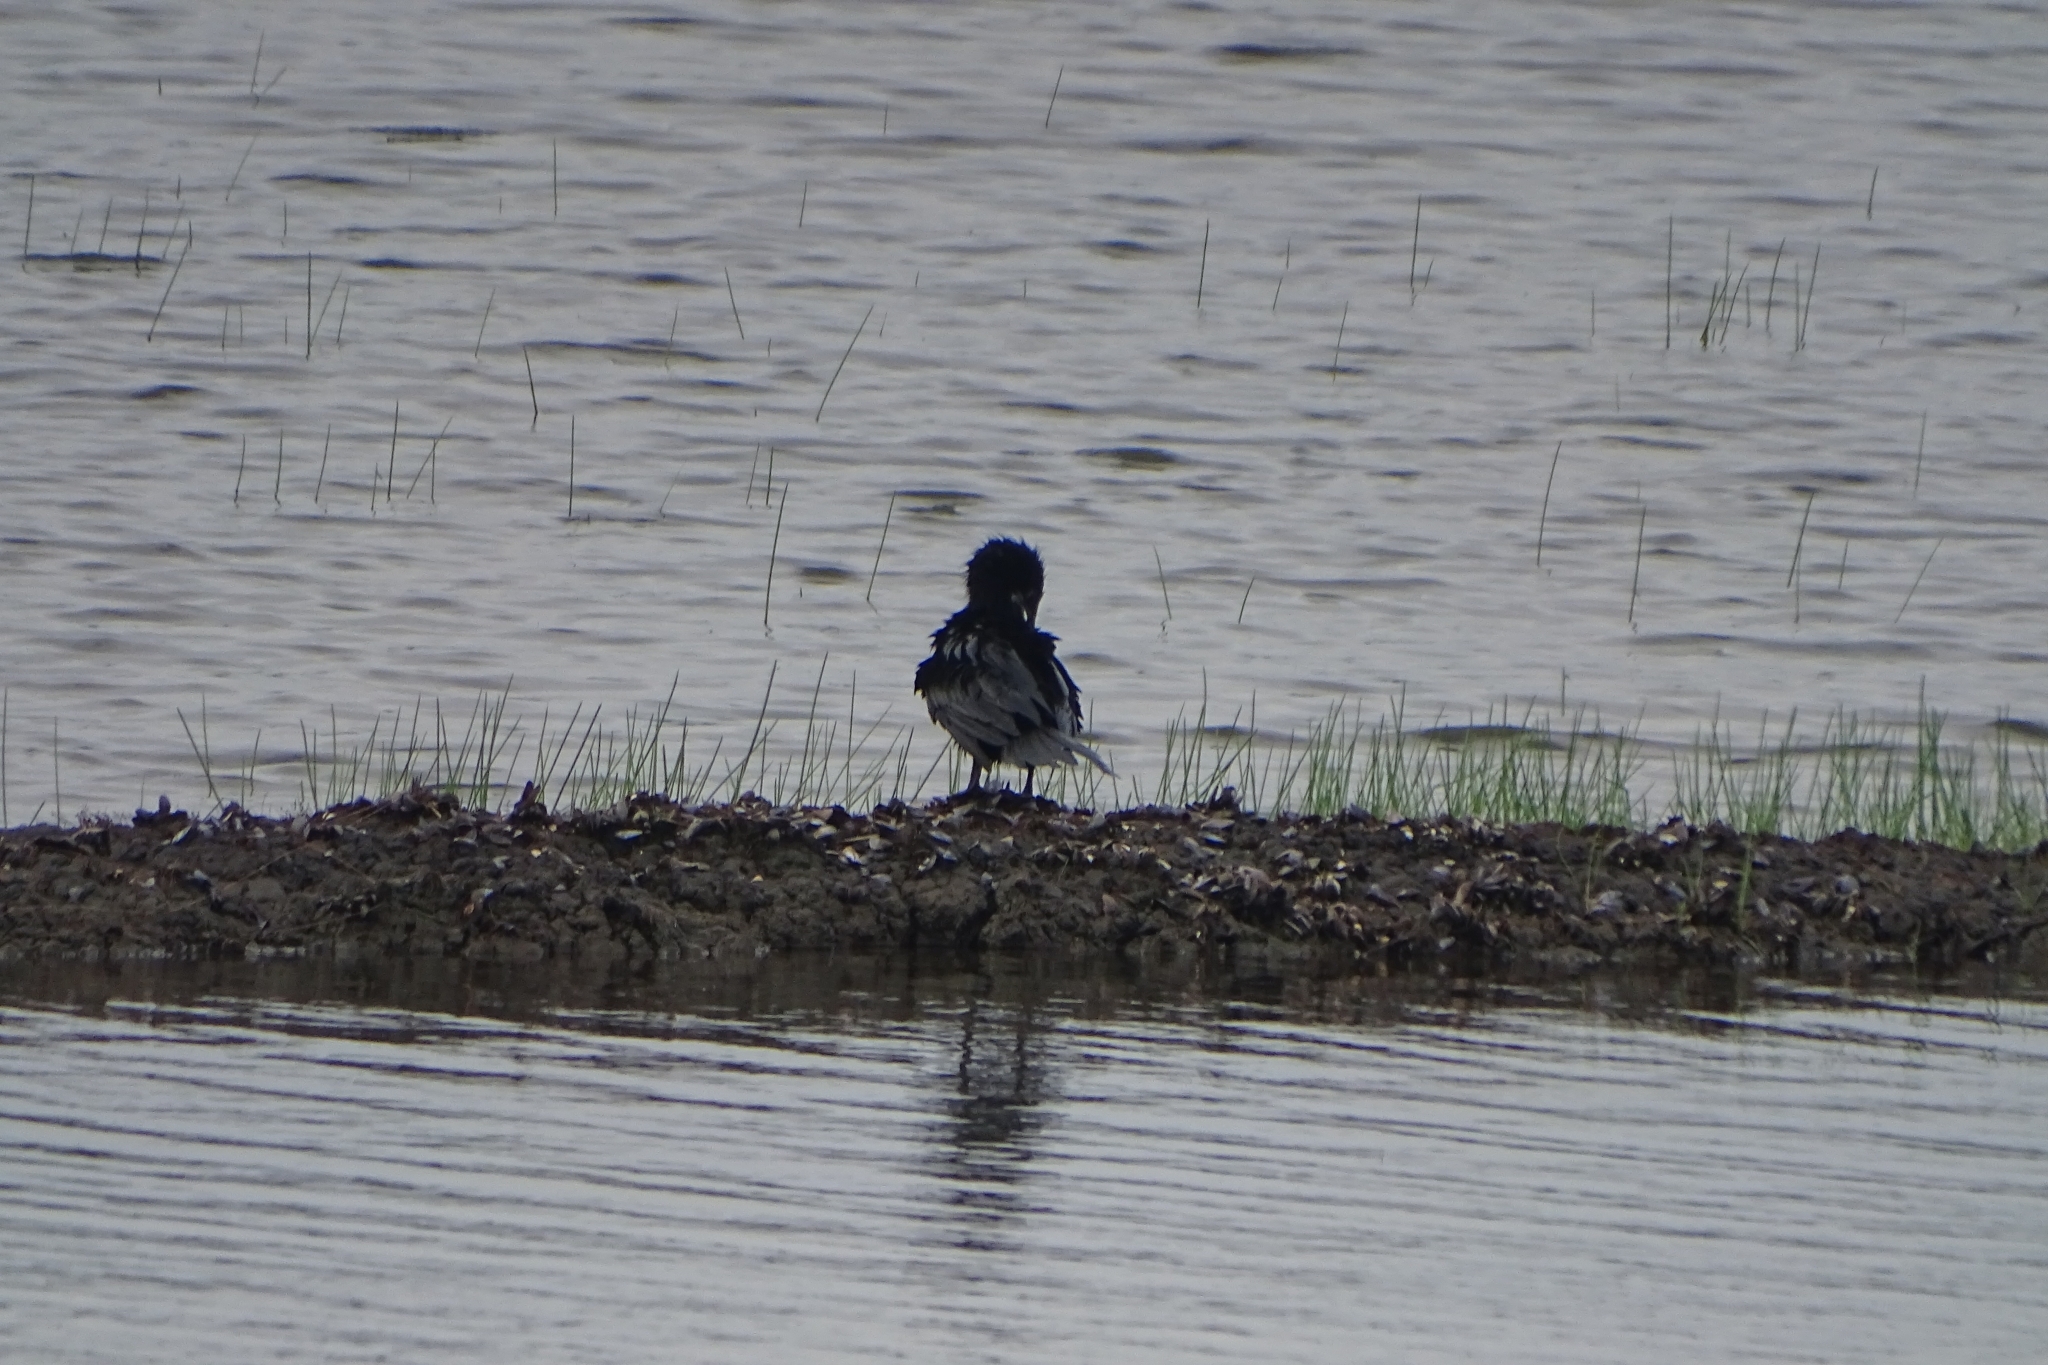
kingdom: Animalia
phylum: Chordata
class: Aves
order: Suliformes
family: Phalacrocoracidae
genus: Microcarbo
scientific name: Microcarbo niger
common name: Little cormorant
